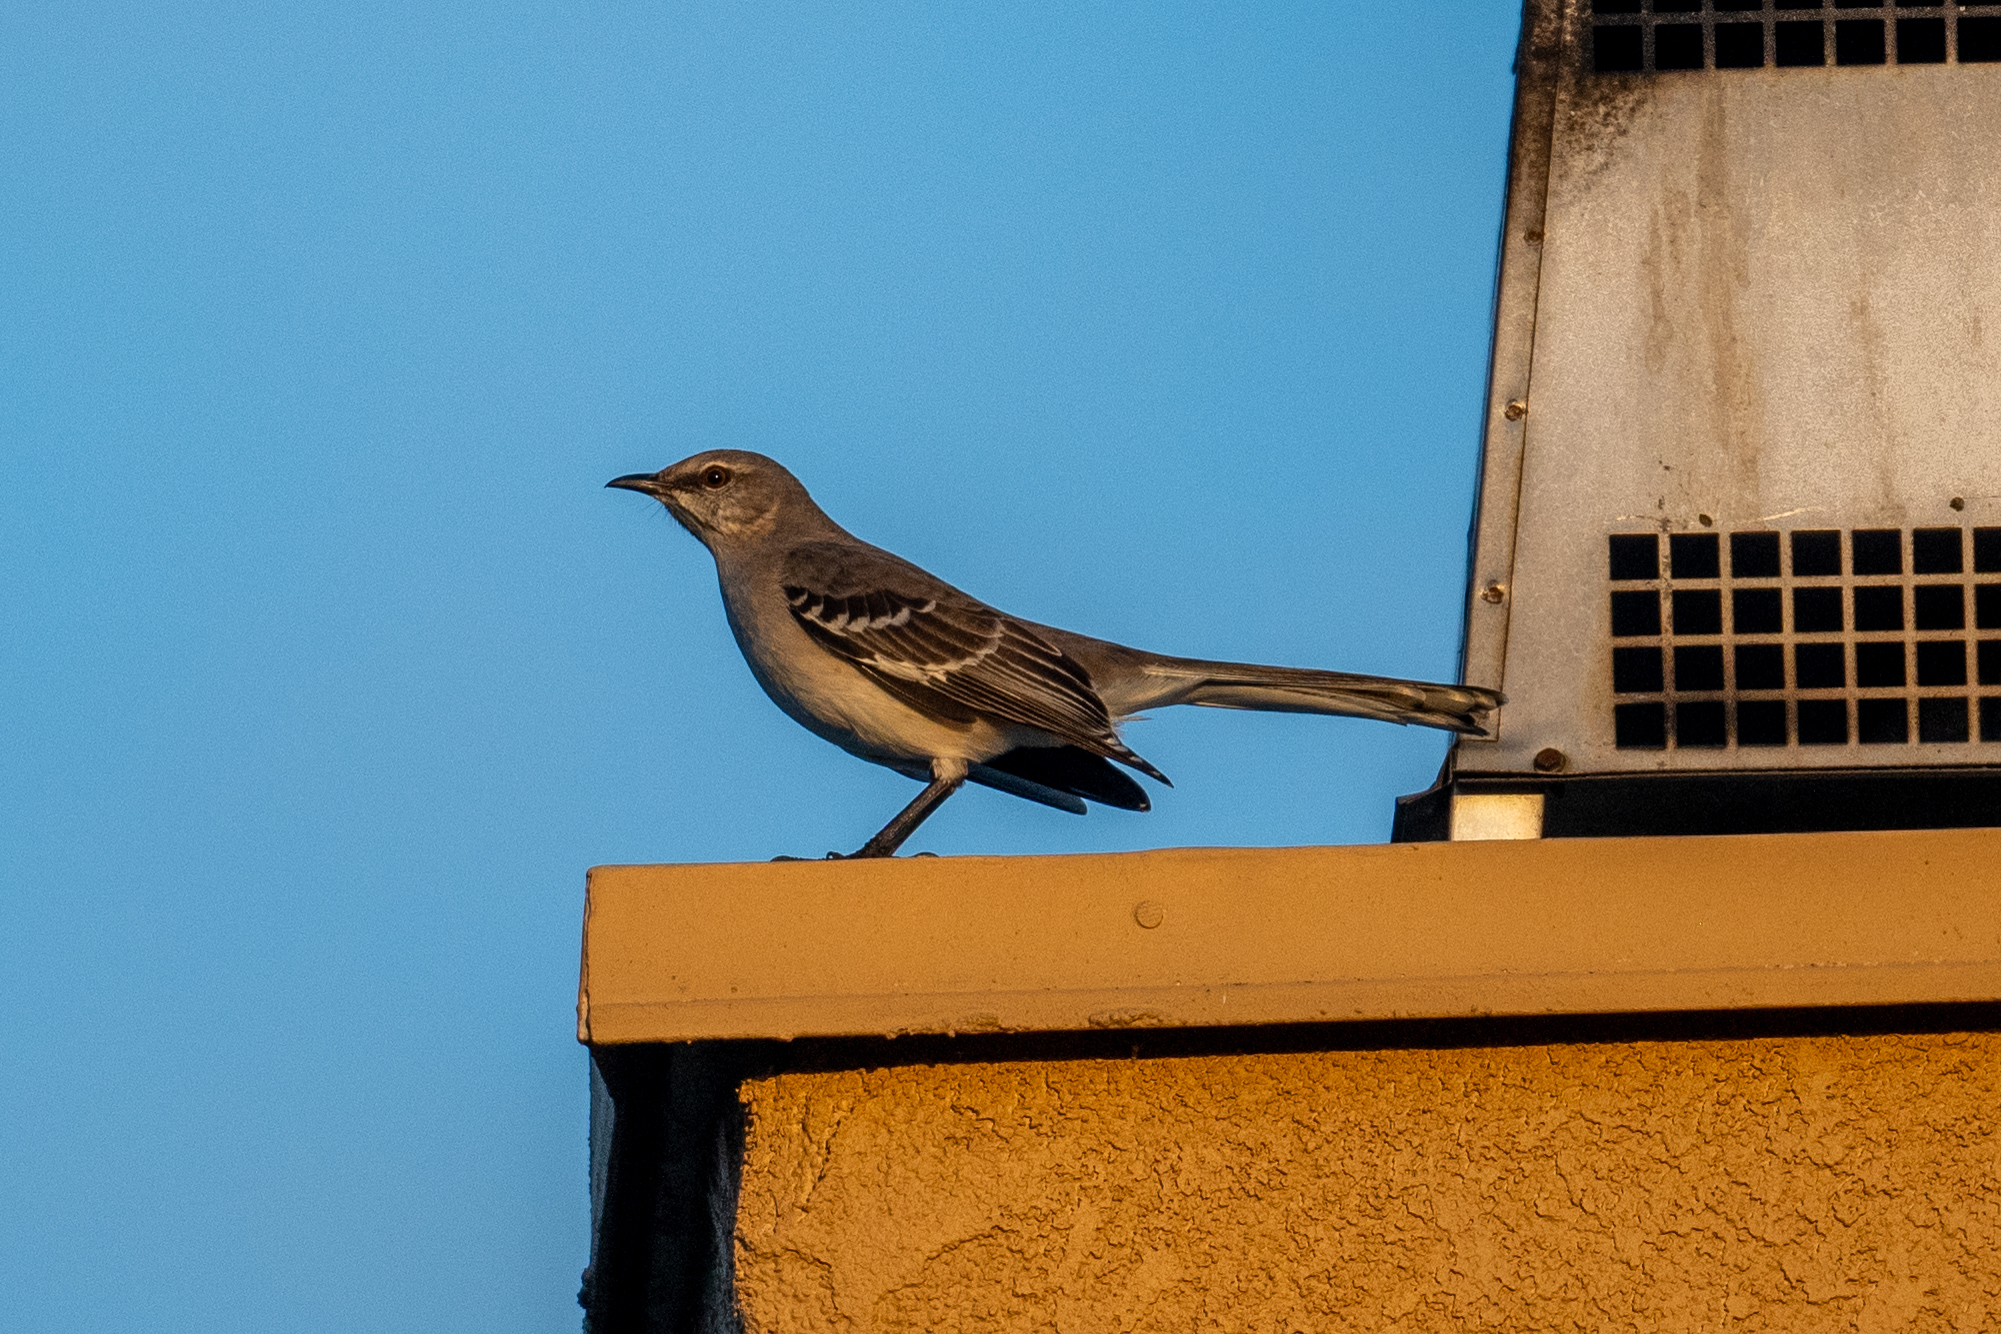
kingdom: Animalia
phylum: Chordata
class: Aves
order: Passeriformes
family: Mimidae
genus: Mimus
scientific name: Mimus polyglottos
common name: Northern mockingbird
